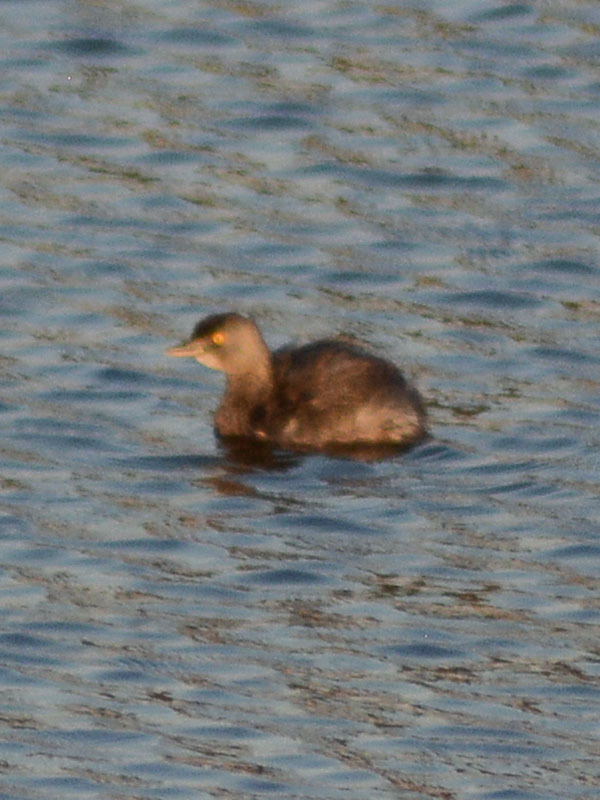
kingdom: Animalia
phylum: Chordata
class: Aves
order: Podicipediformes
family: Podicipedidae
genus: Tachybaptus
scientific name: Tachybaptus dominicus
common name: Least grebe
